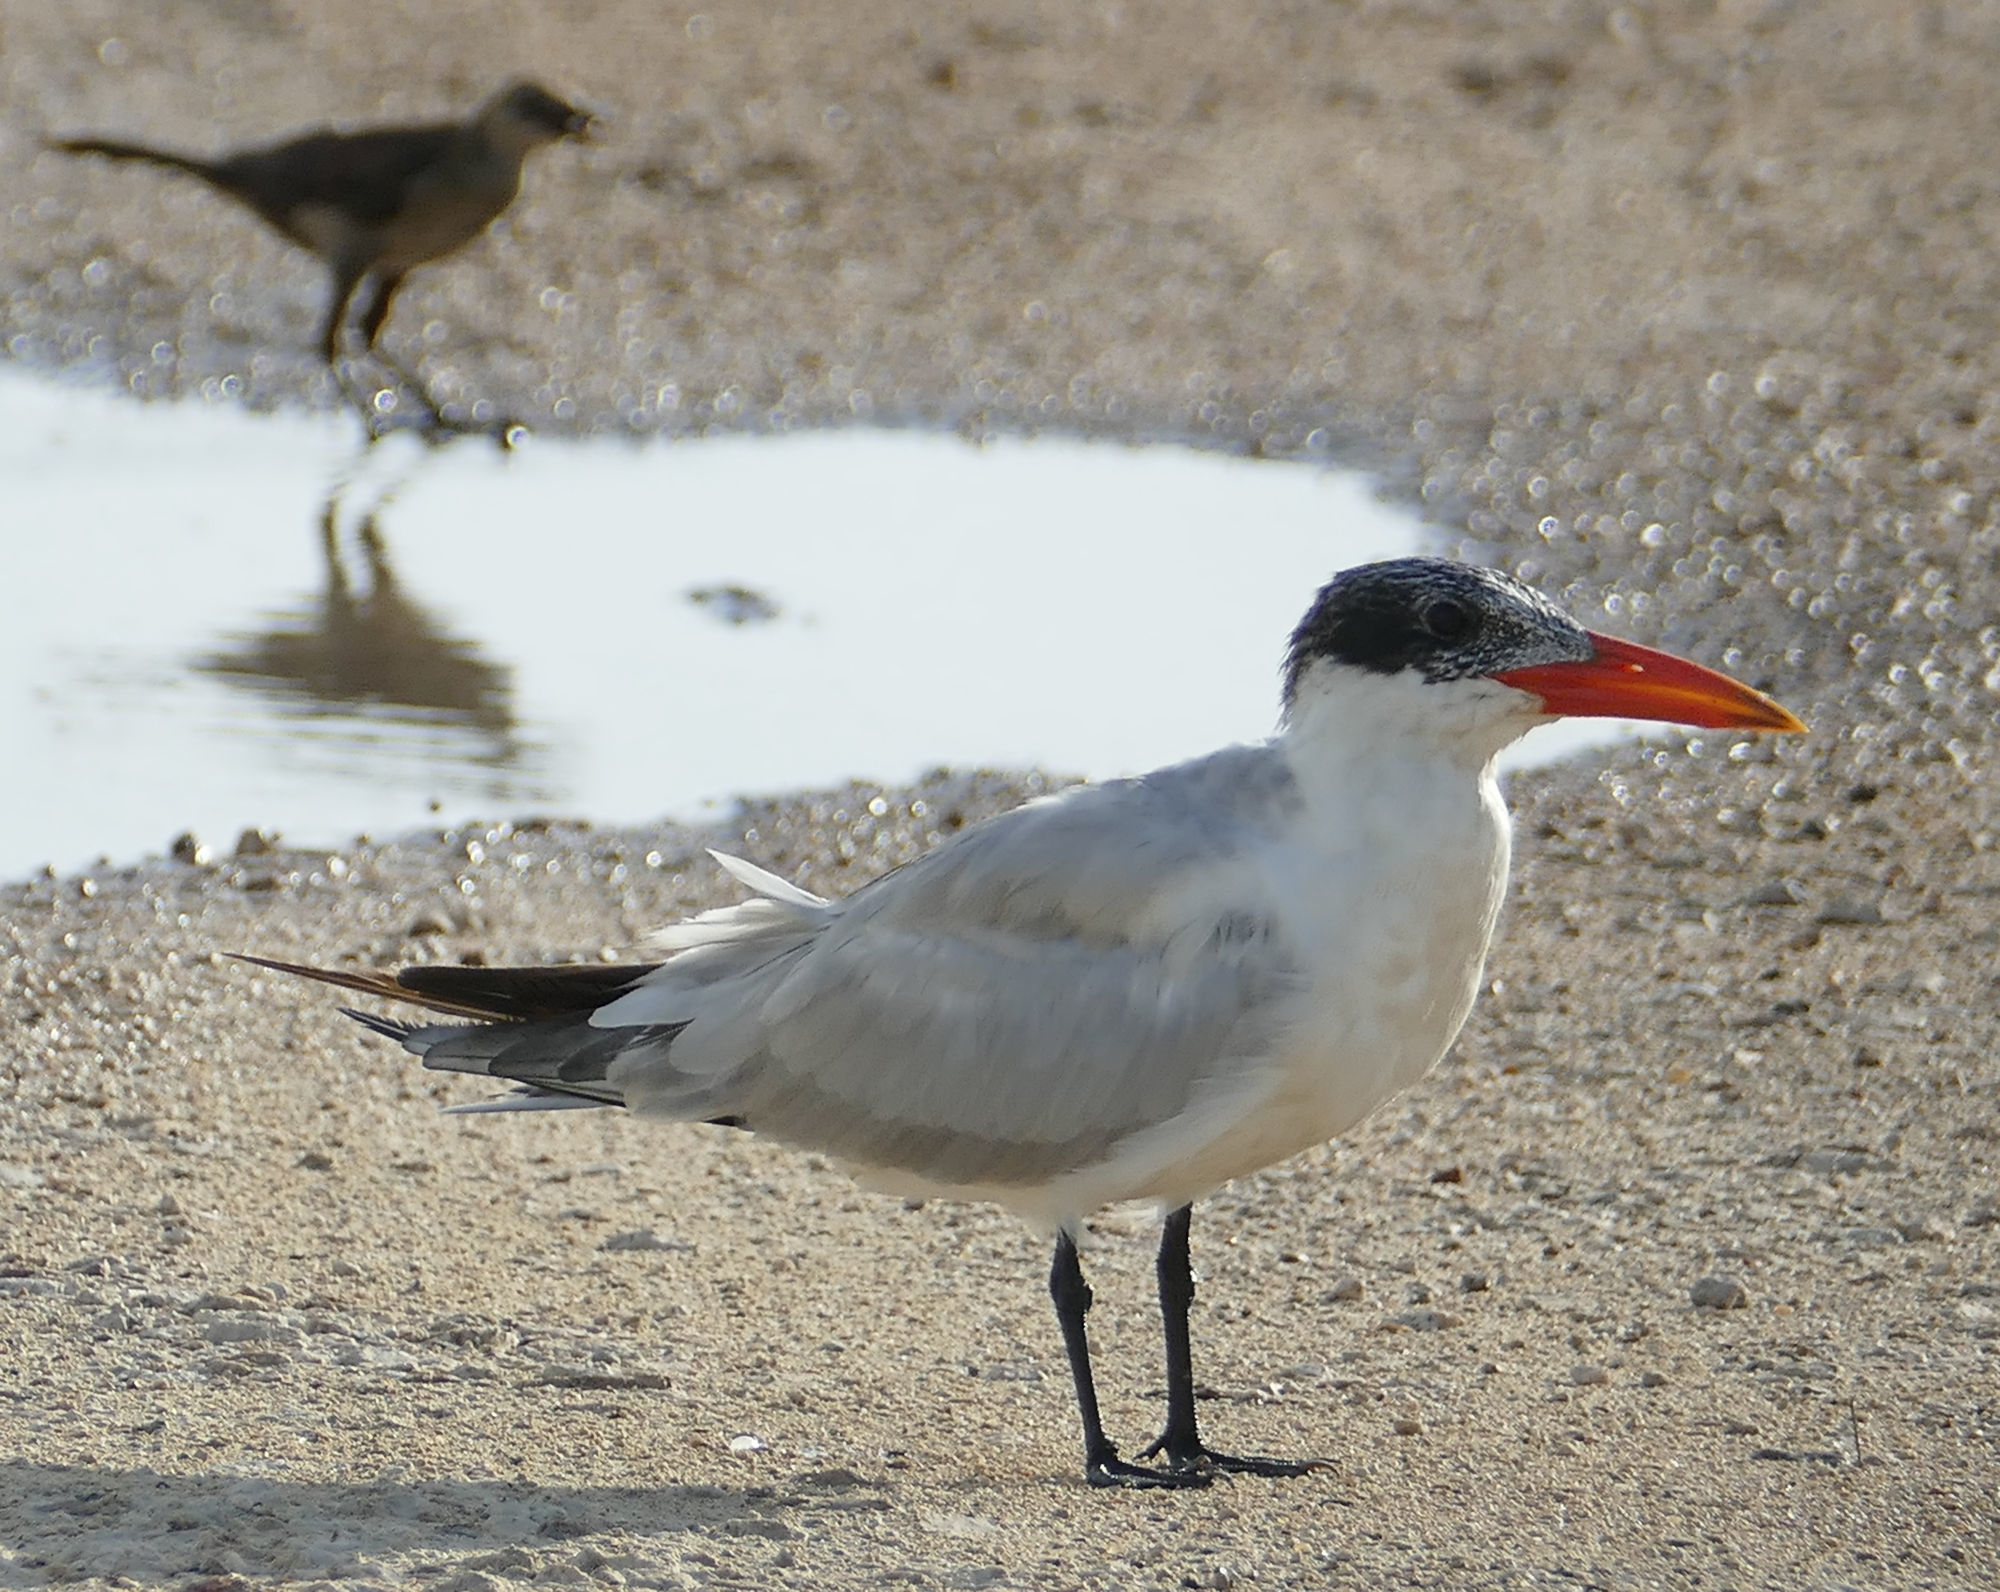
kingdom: Animalia
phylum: Chordata
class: Aves
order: Charadriiformes
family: Laridae
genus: Hydroprogne
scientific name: Hydroprogne caspia
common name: Caspian tern
